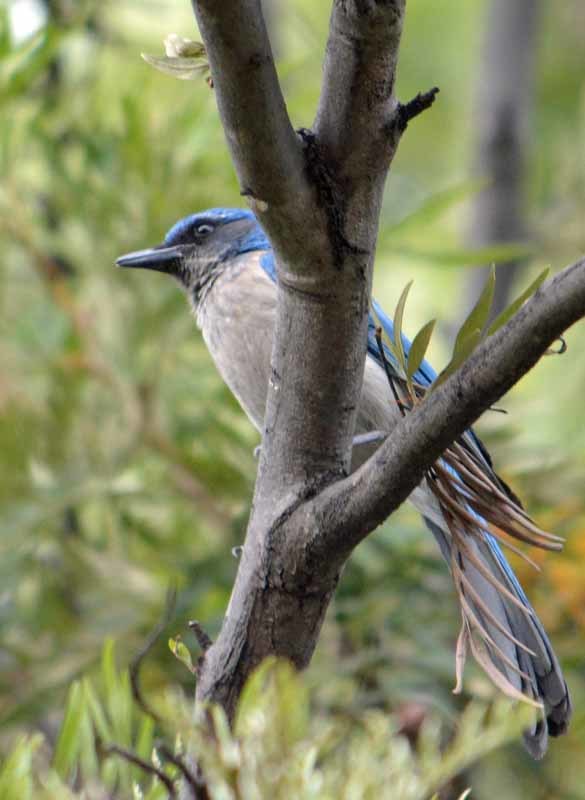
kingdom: Animalia
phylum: Chordata
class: Aves
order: Passeriformes
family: Corvidae
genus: Aphelocoma
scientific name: Aphelocoma woodhouseii
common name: Woodhouse's scrub-jay
